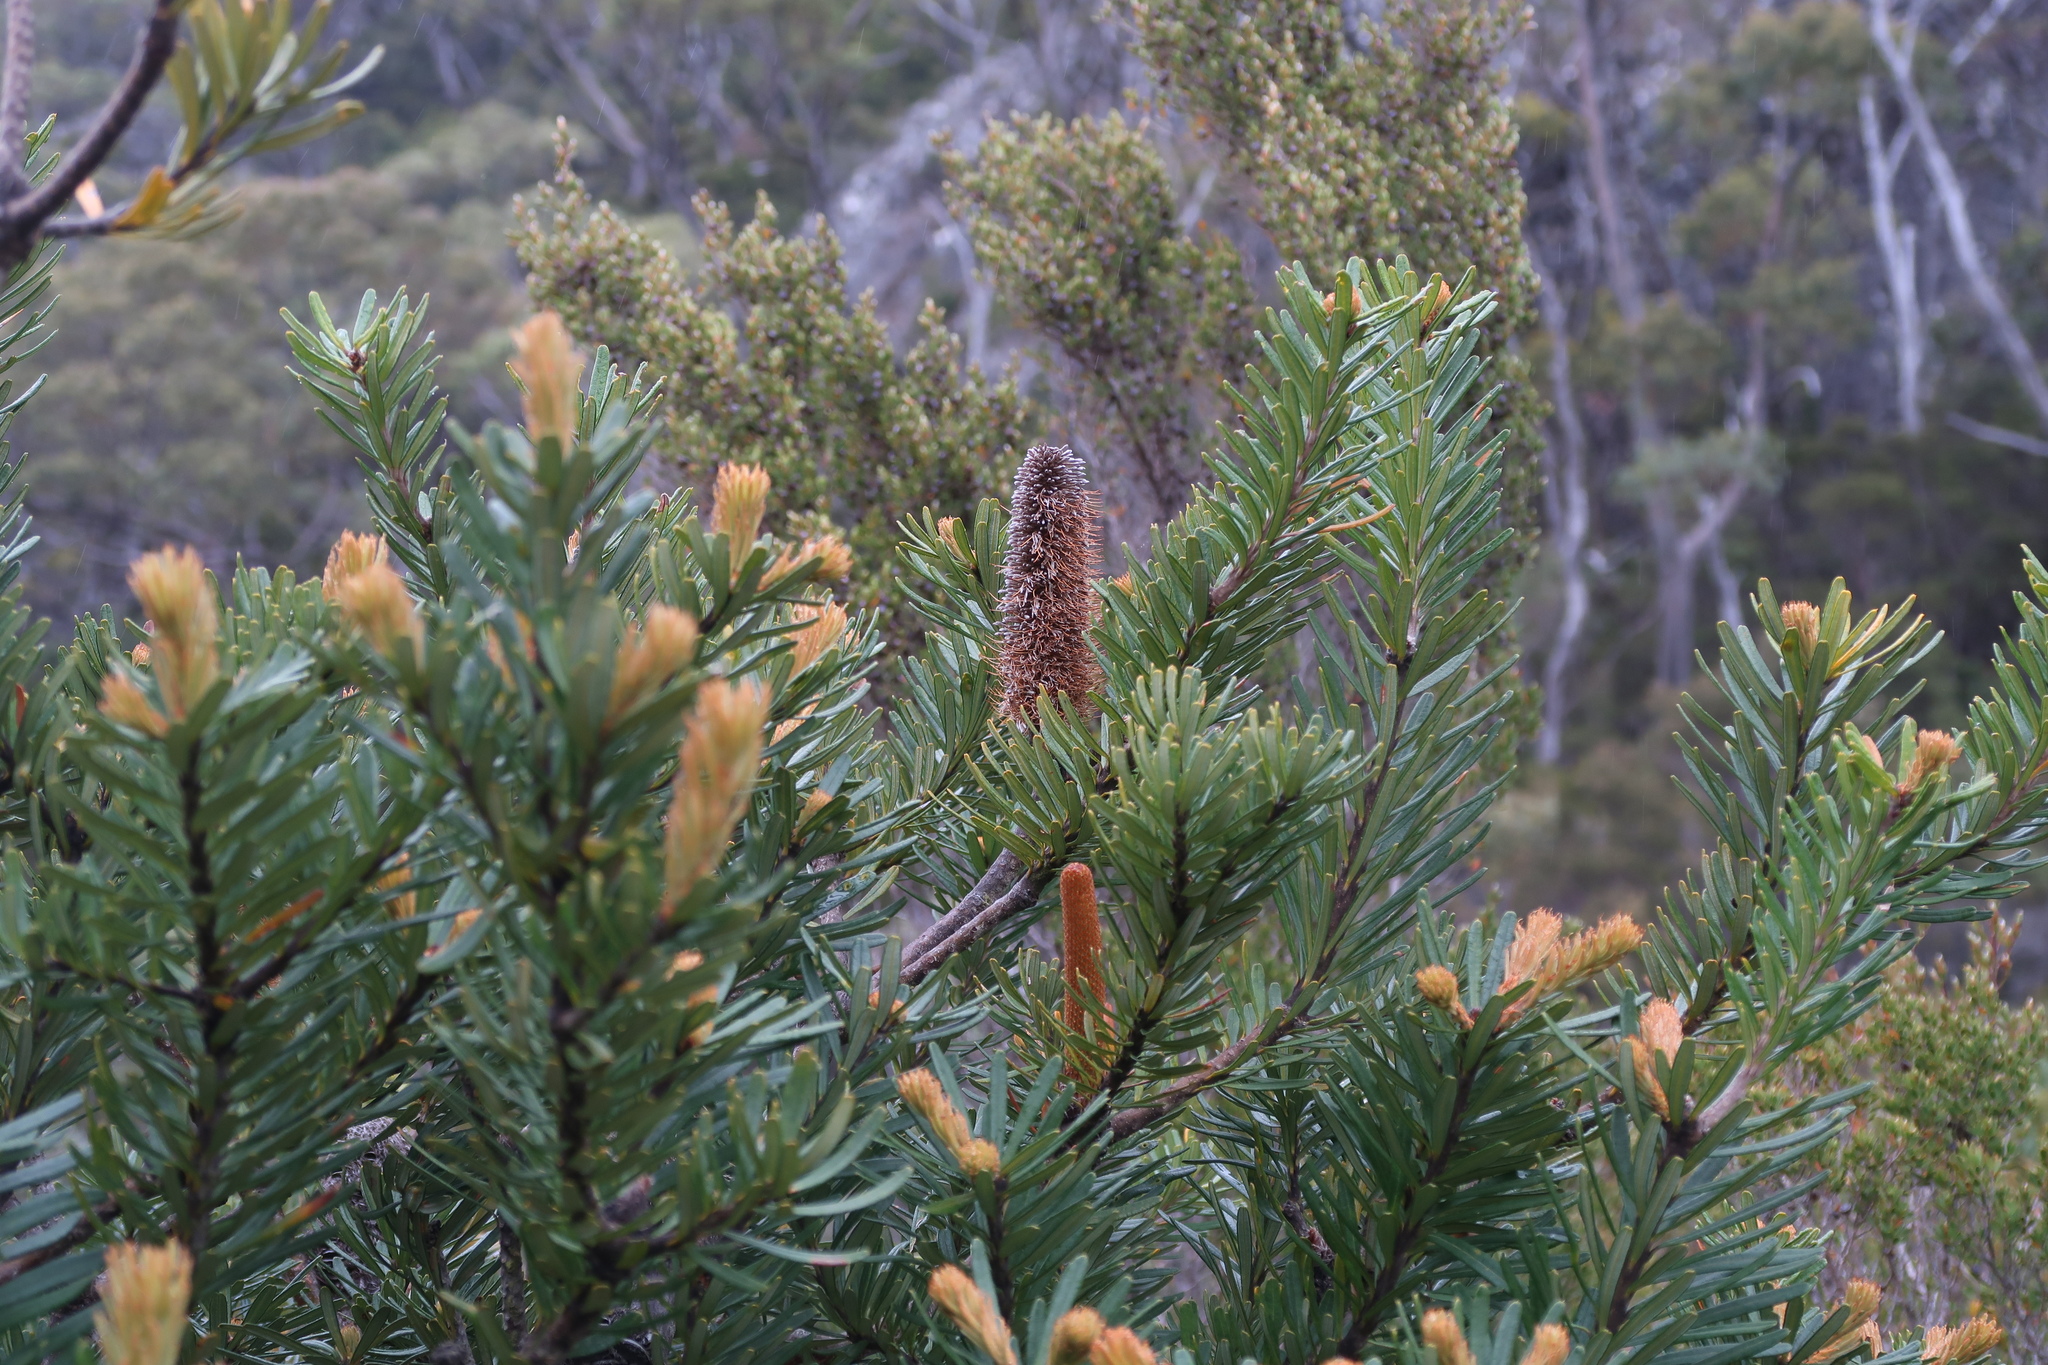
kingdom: Plantae
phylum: Tracheophyta
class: Magnoliopsida
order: Proteales
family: Proteaceae
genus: Banksia
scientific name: Banksia marginata
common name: Silver banksia
